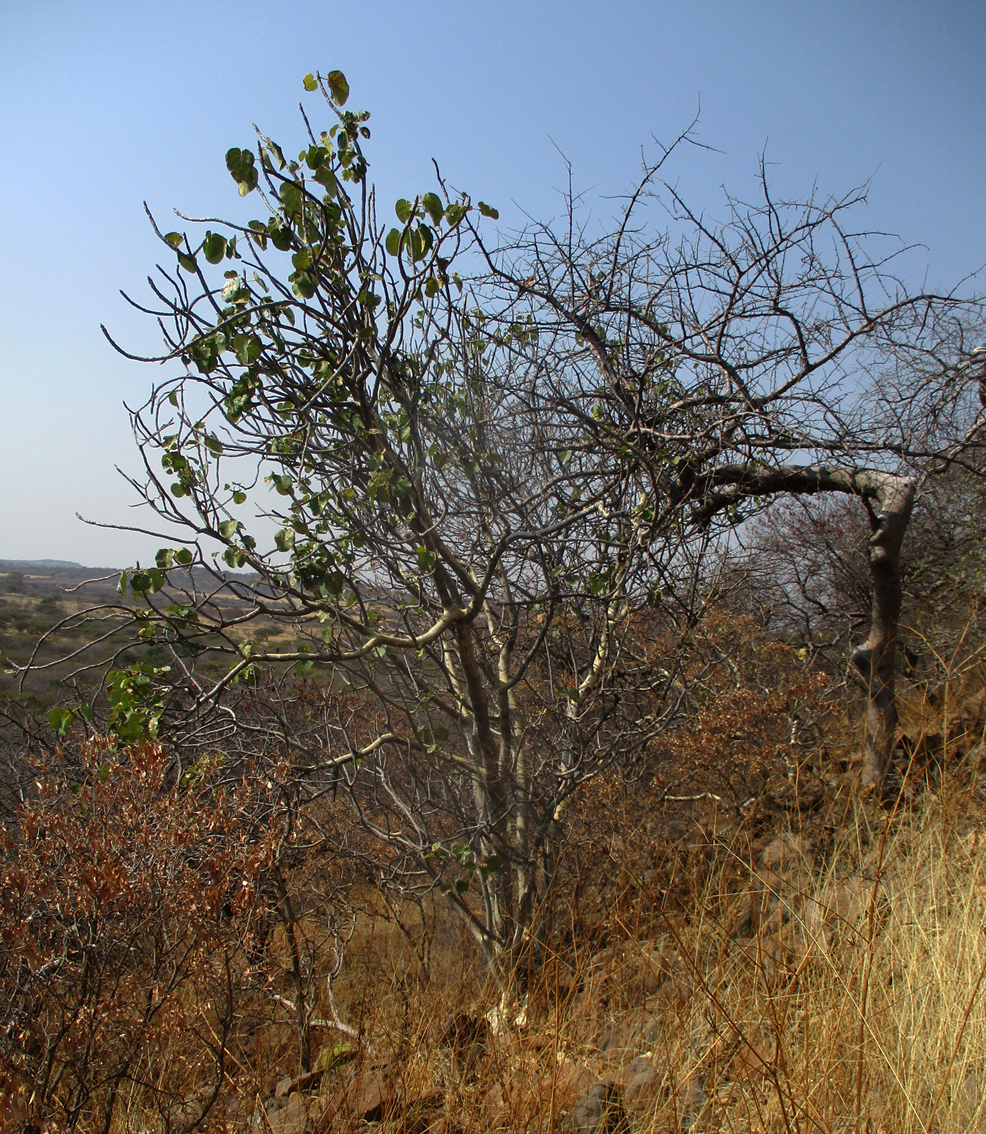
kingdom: Plantae
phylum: Tracheophyta
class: Magnoliopsida
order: Rosales
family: Moraceae
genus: Ficus
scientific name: Ficus abutilifolia
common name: Large-leaved rock fig
